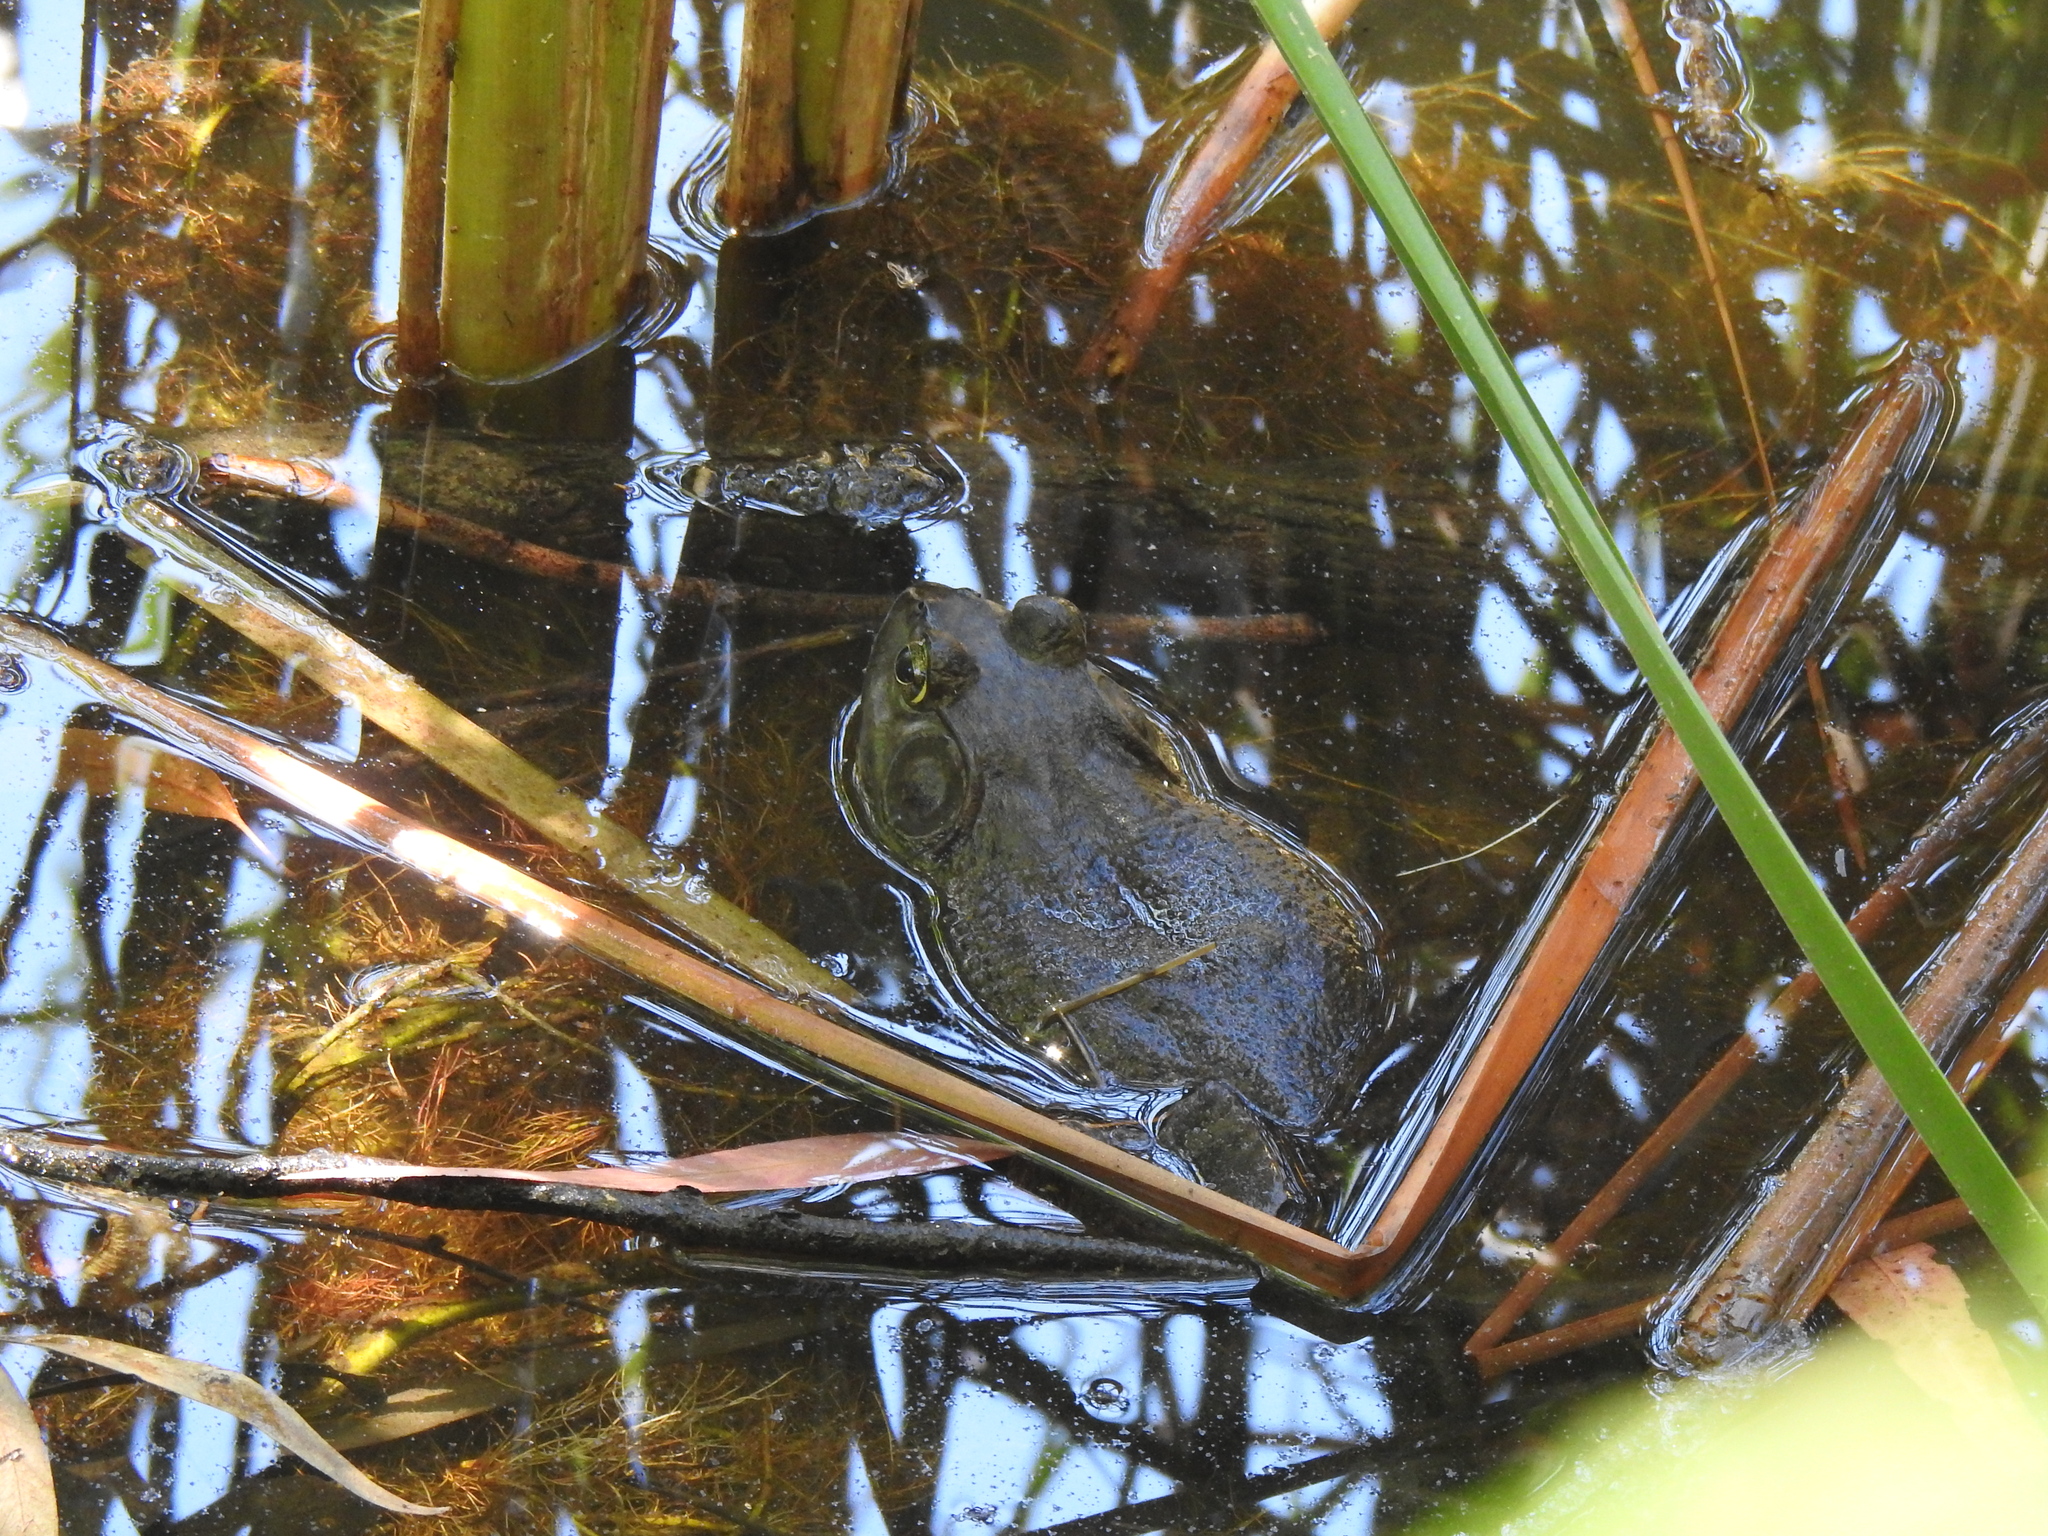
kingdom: Animalia
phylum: Chordata
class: Amphibia
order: Anura
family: Ranidae
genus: Lithobates
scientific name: Lithobates catesbeianus
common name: American bullfrog
